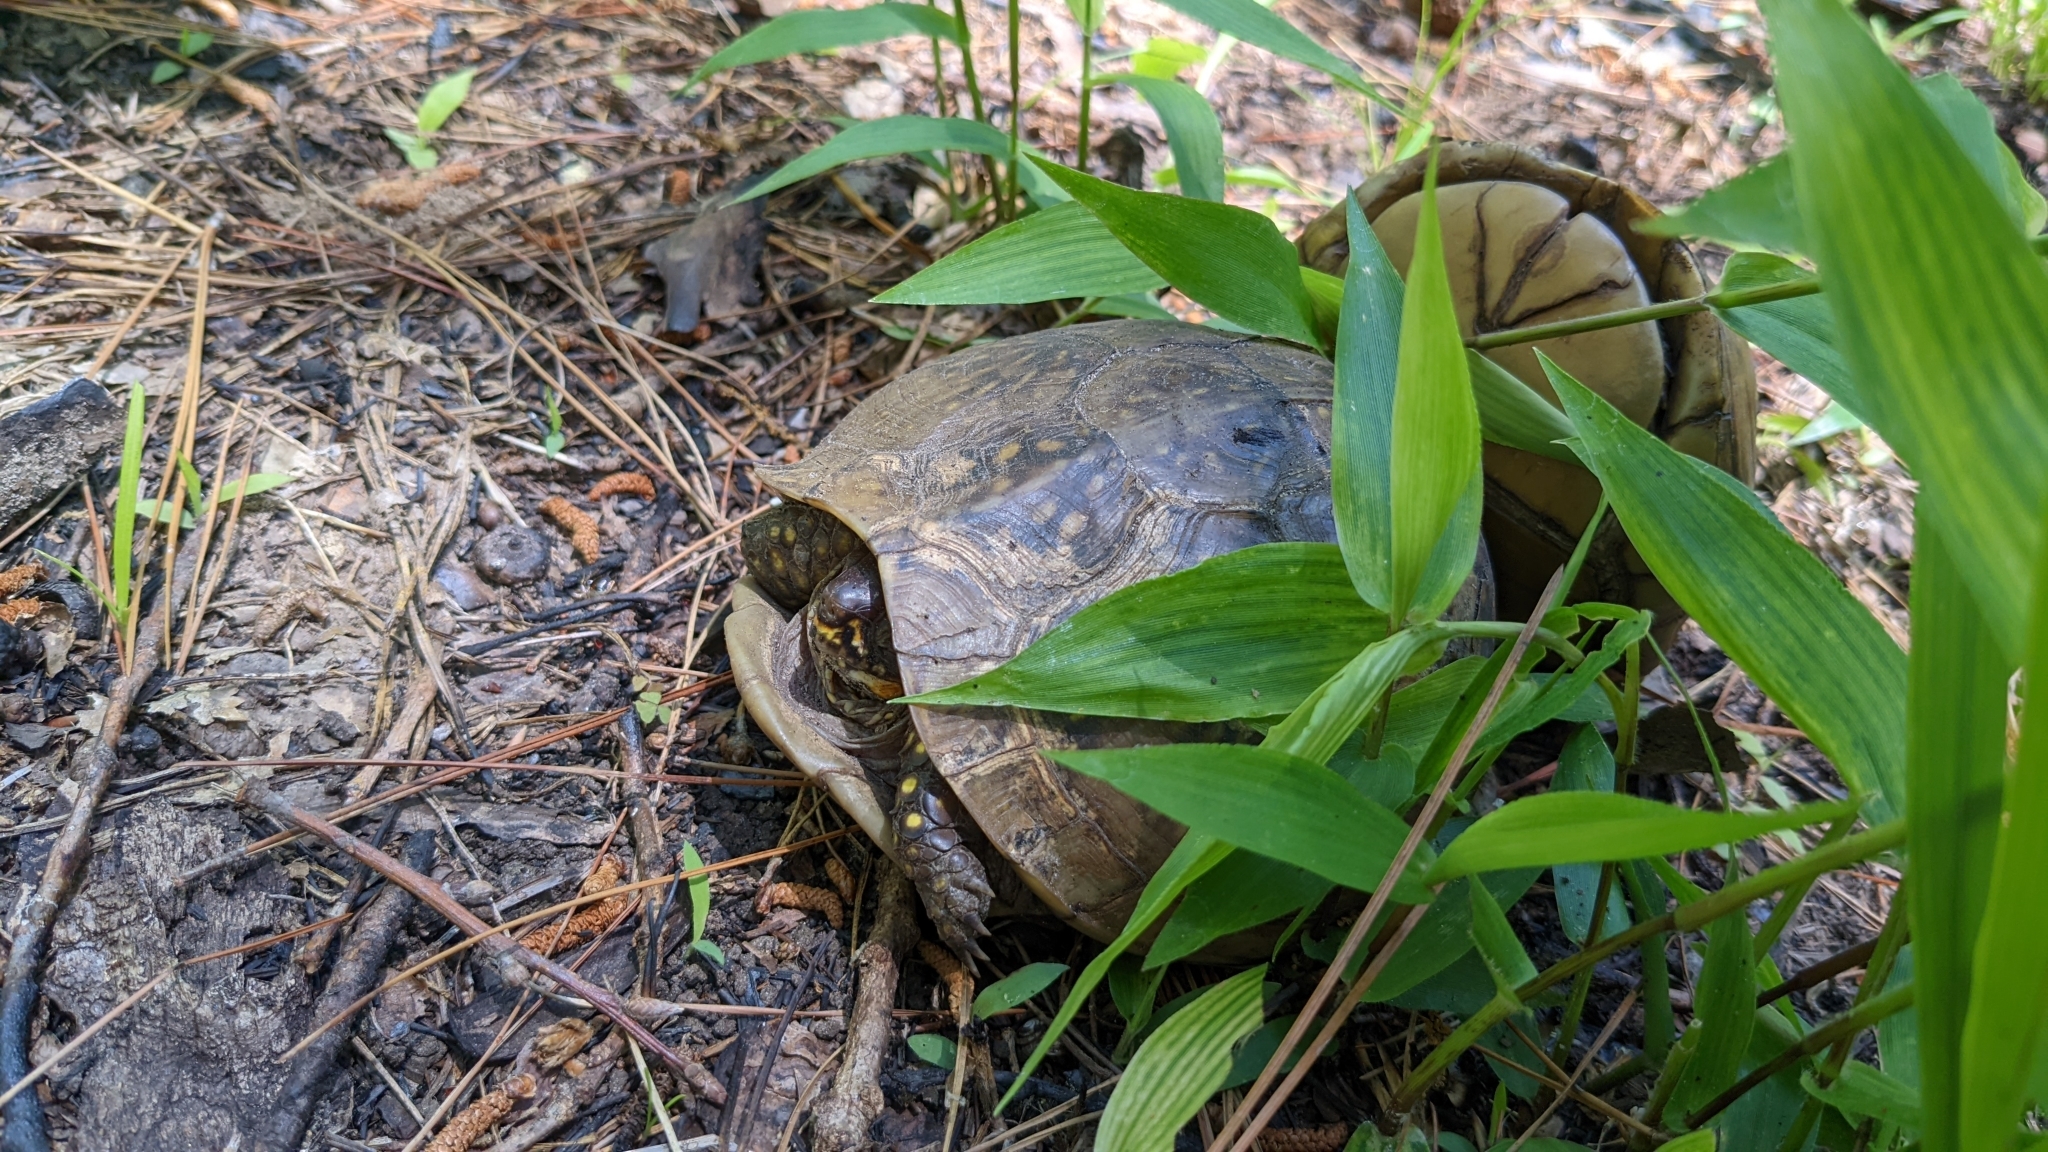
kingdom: Animalia
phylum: Chordata
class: Testudines
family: Emydidae
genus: Terrapene
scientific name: Terrapene carolina
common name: Common box turtle
